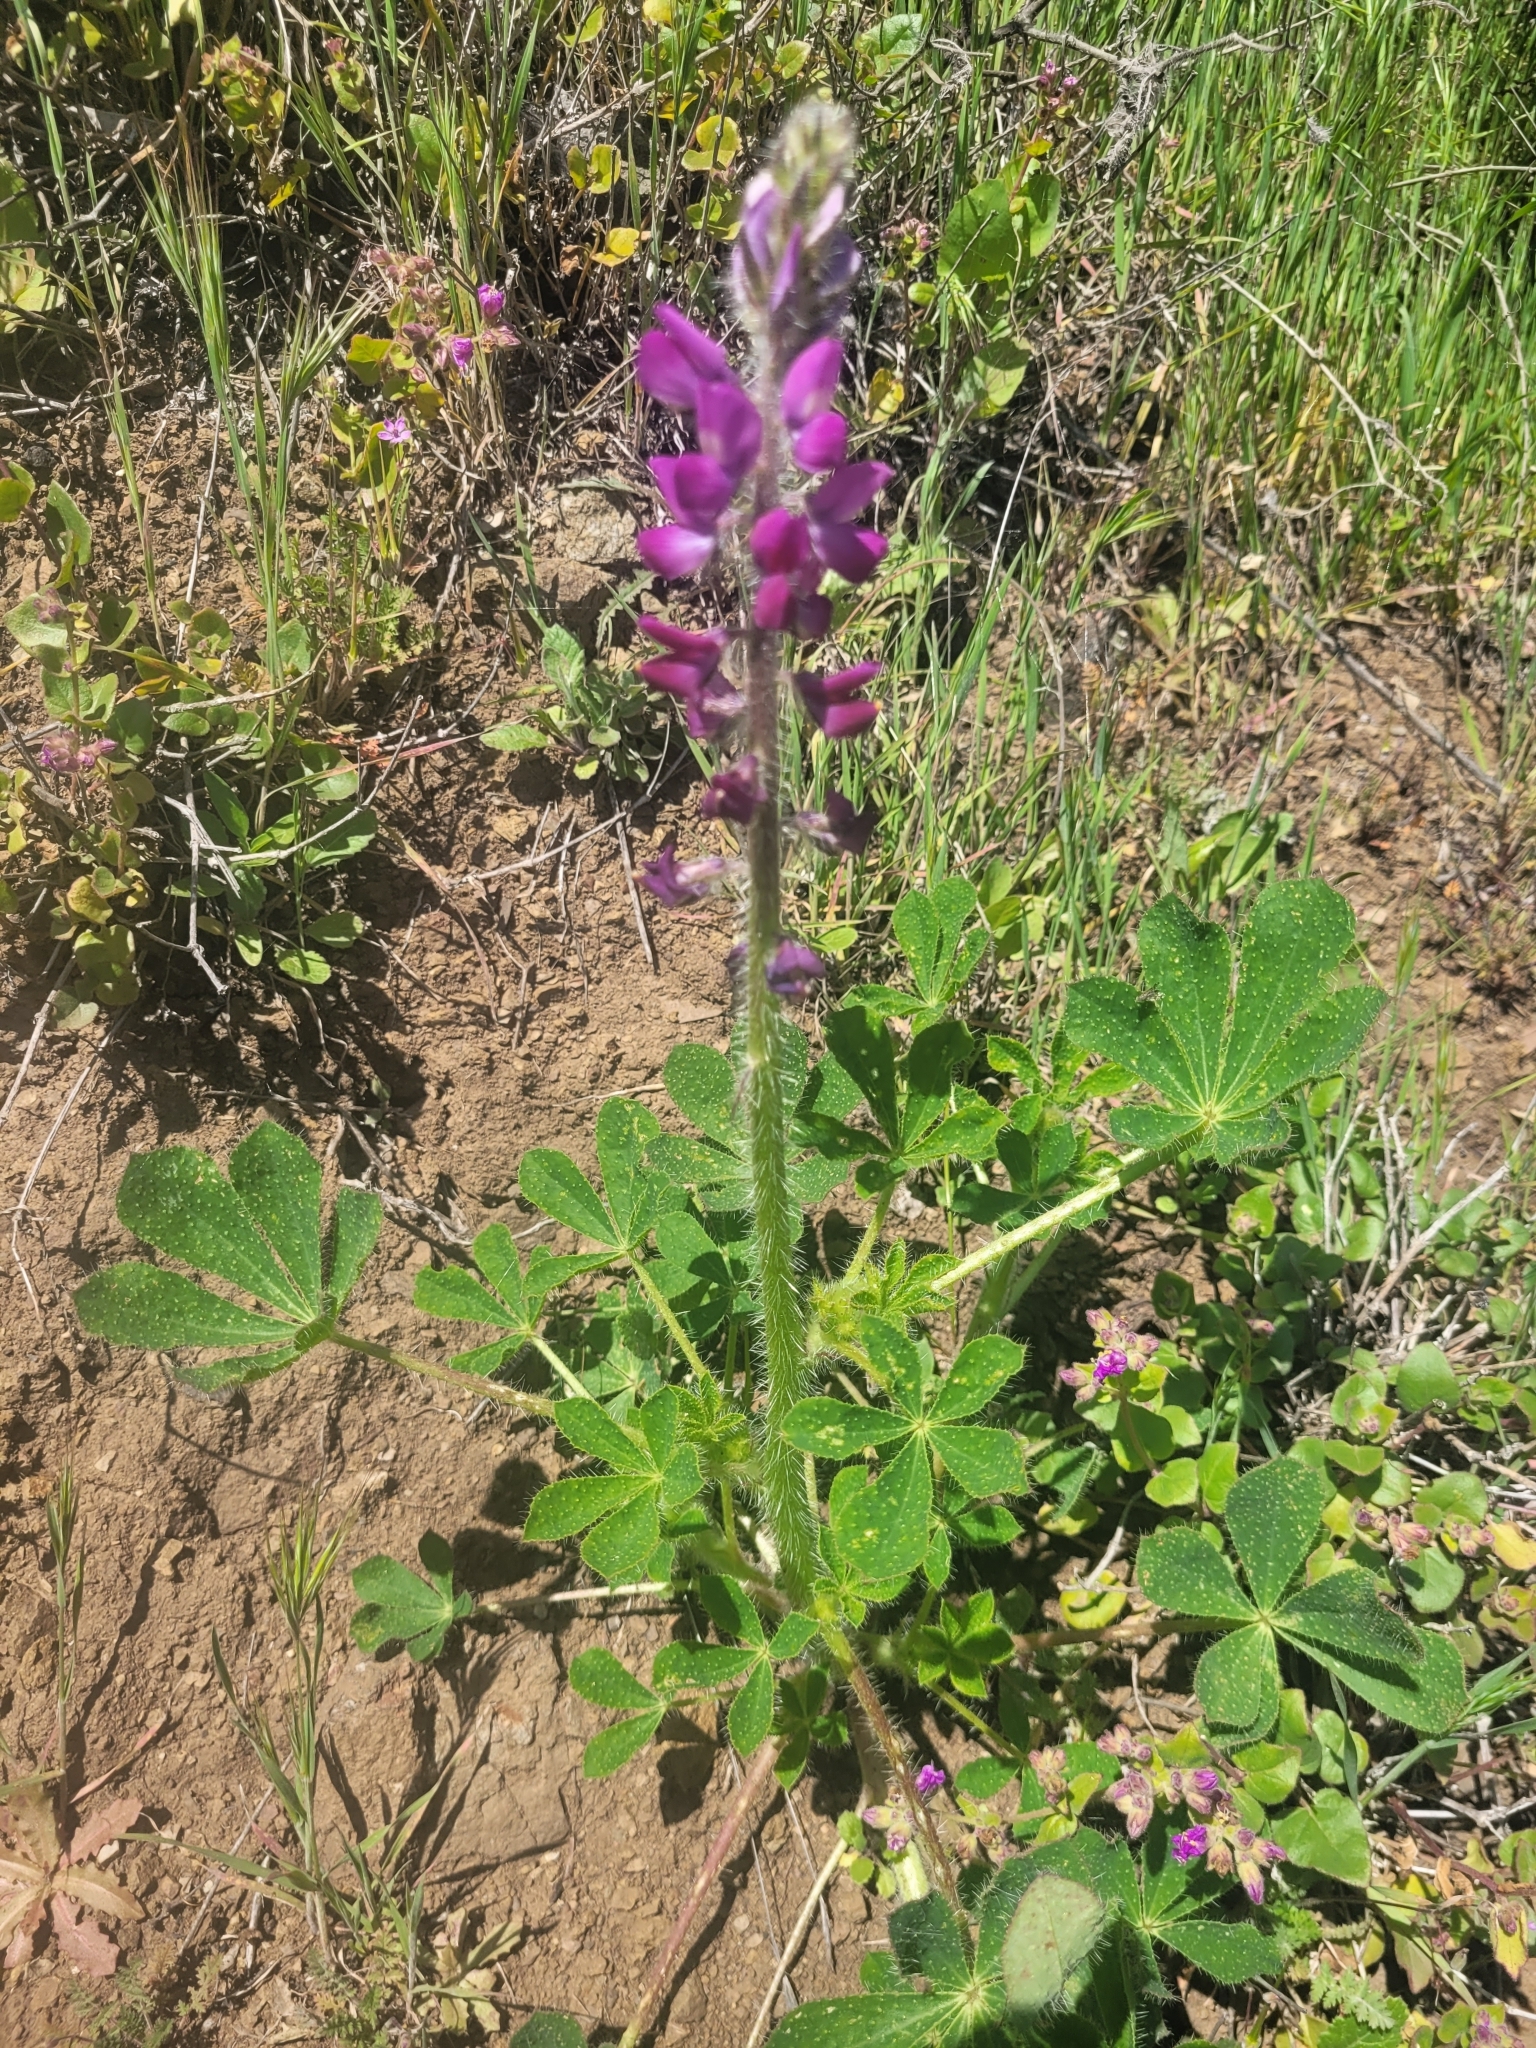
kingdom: Plantae
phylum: Tracheophyta
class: Magnoliopsida
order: Fabales
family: Fabaceae
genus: Lupinus
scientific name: Lupinus hirsutissimus
